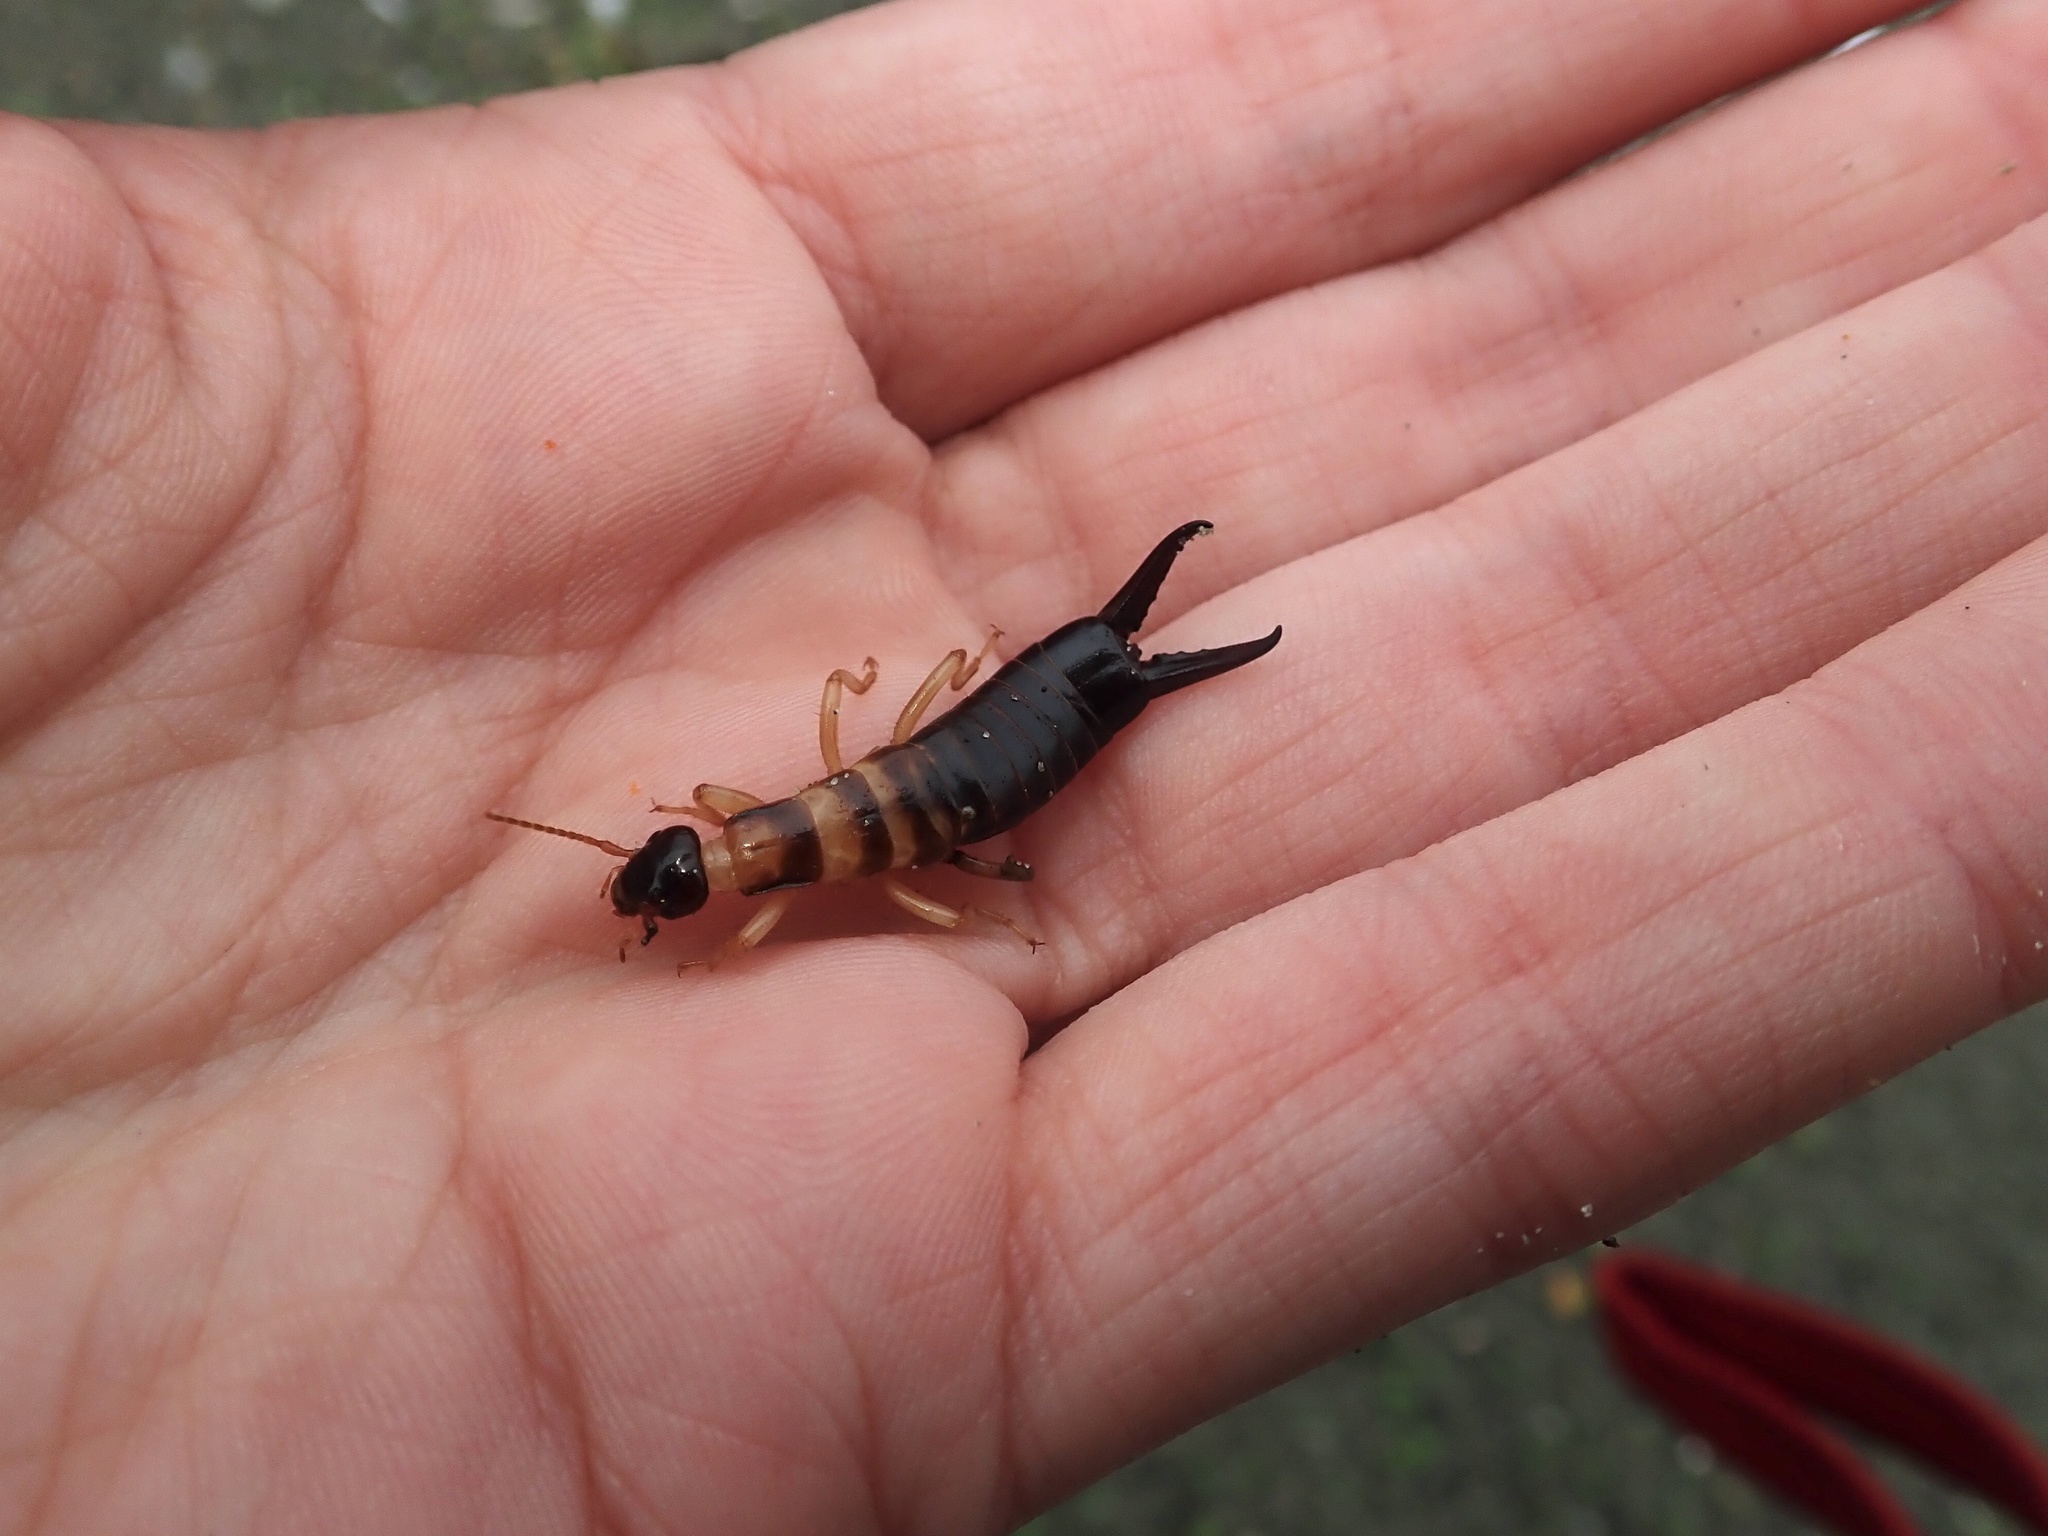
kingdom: Animalia
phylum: Arthropoda
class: Insecta
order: Dermaptera
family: Anisolabididae
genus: Anisolabis
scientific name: Anisolabis littorea
